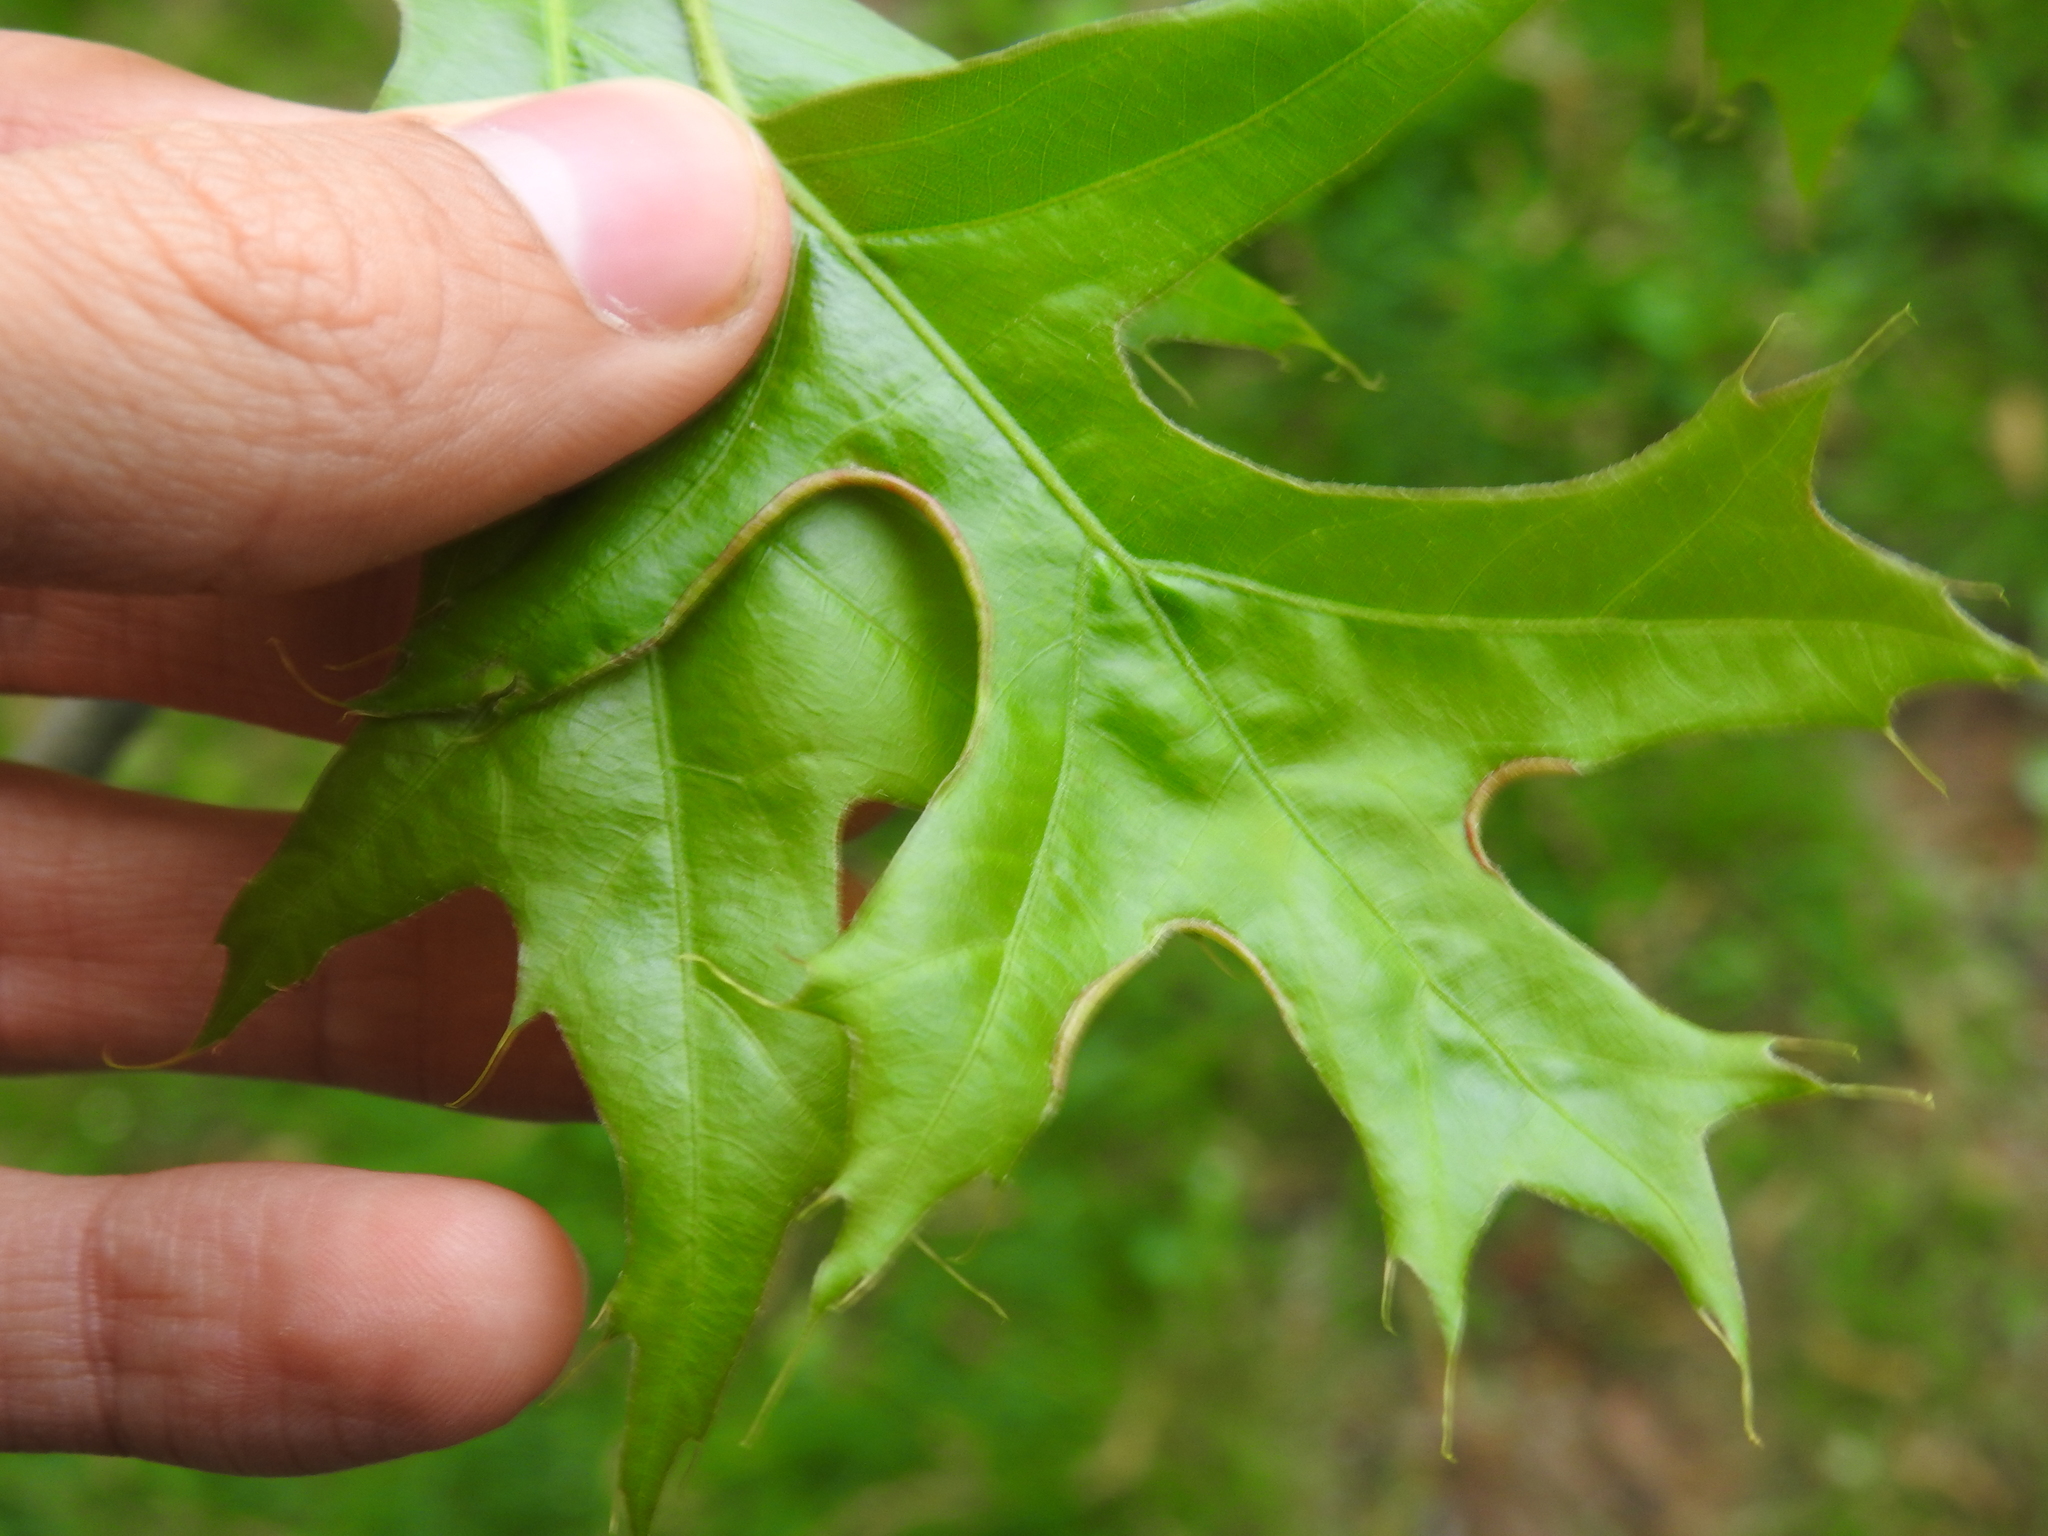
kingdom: Animalia
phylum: Arthropoda
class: Insecta
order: Diptera
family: Cecidomyiidae
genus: Macrodiplosis
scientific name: Macrodiplosis erubescens
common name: Marginal leaf fold gall midge
